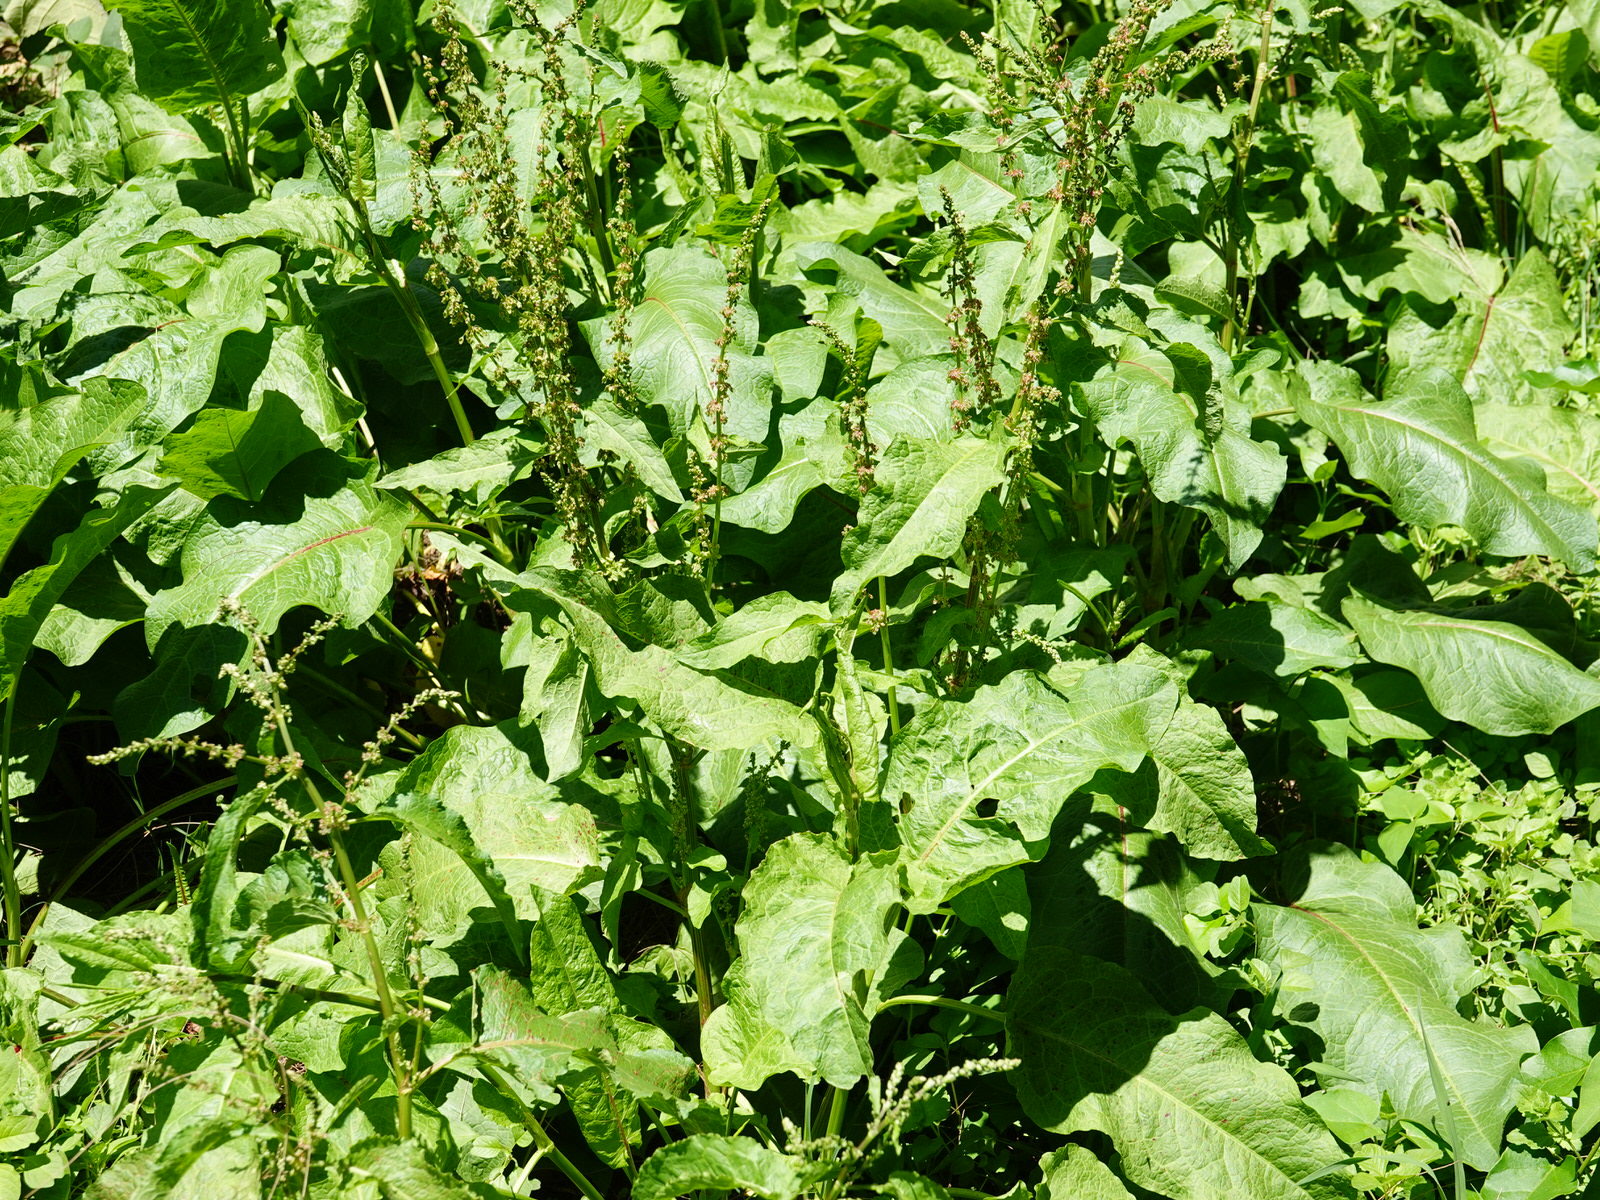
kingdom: Plantae
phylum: Tracheophyta
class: Magnoliopsida
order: Caryophyllales
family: Polygonaceae
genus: Rumex
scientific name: Rumex obtusifolius
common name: Bitter dock
